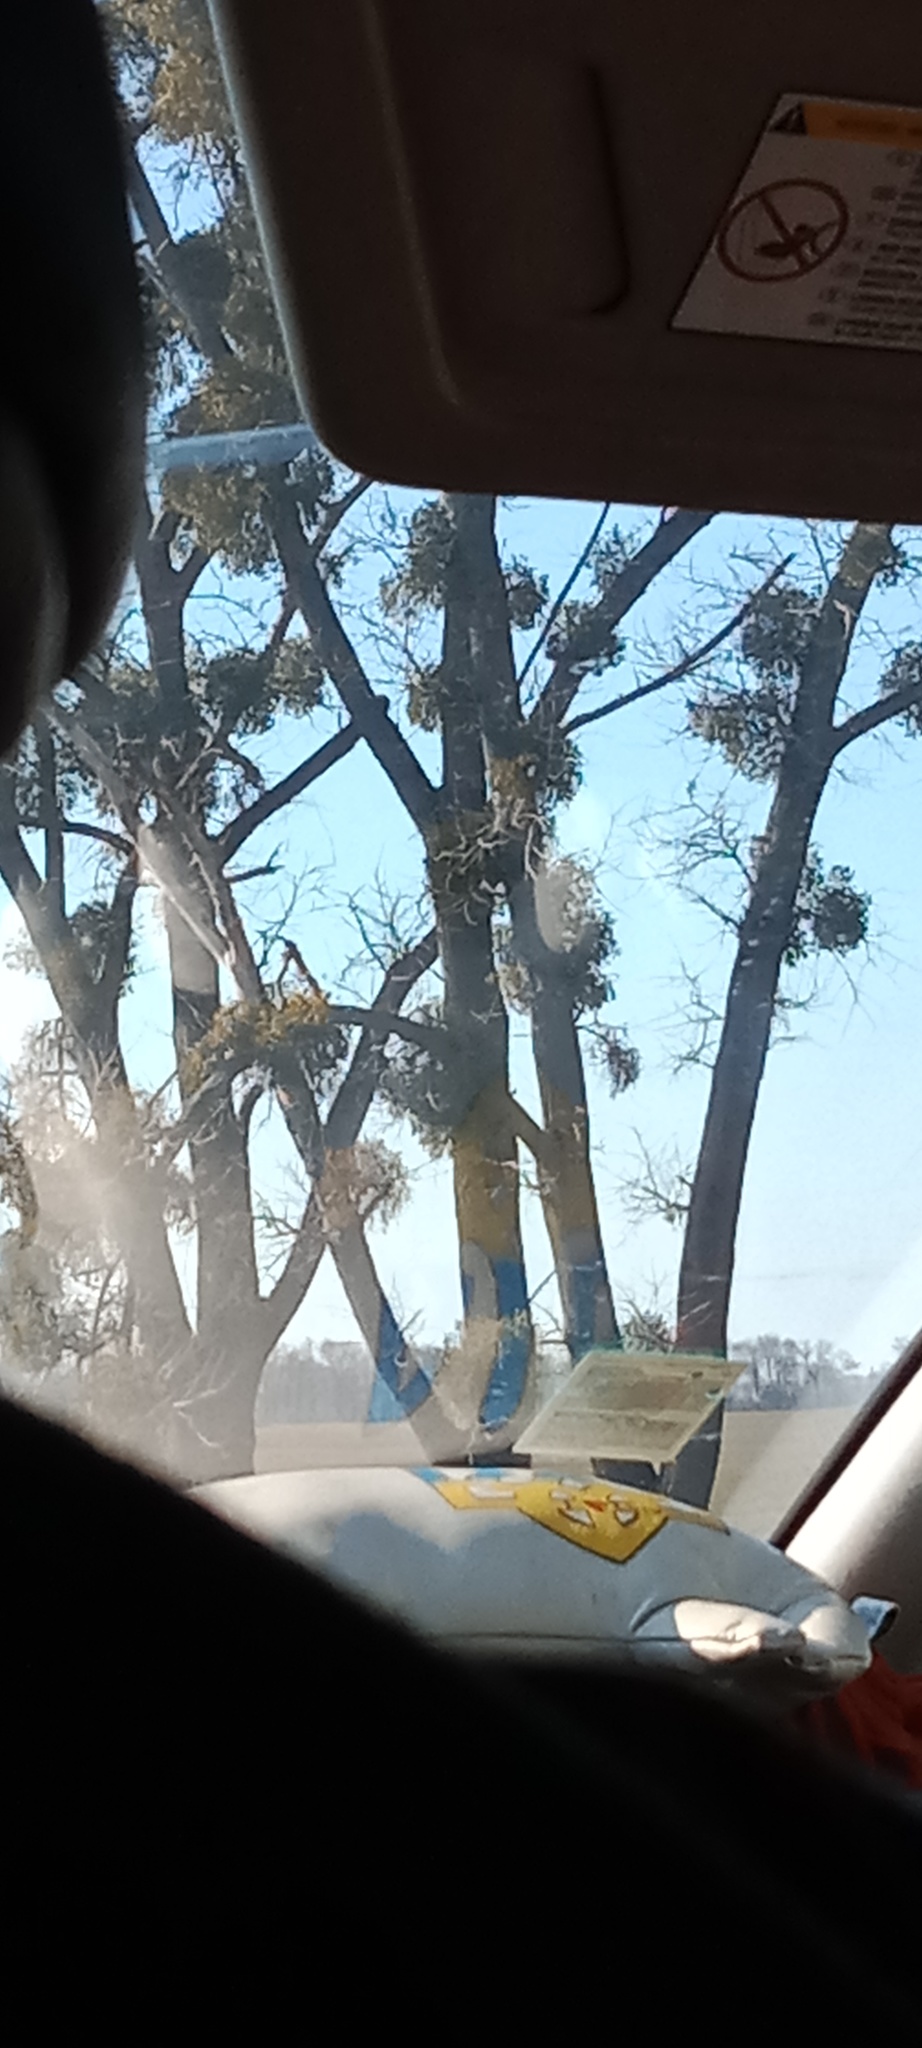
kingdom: Plantae
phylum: Tracheophyta
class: Magnoliopsida
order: Santalales
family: Viscaceae
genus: Viscum
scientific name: Viscum album
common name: Mistletoe
